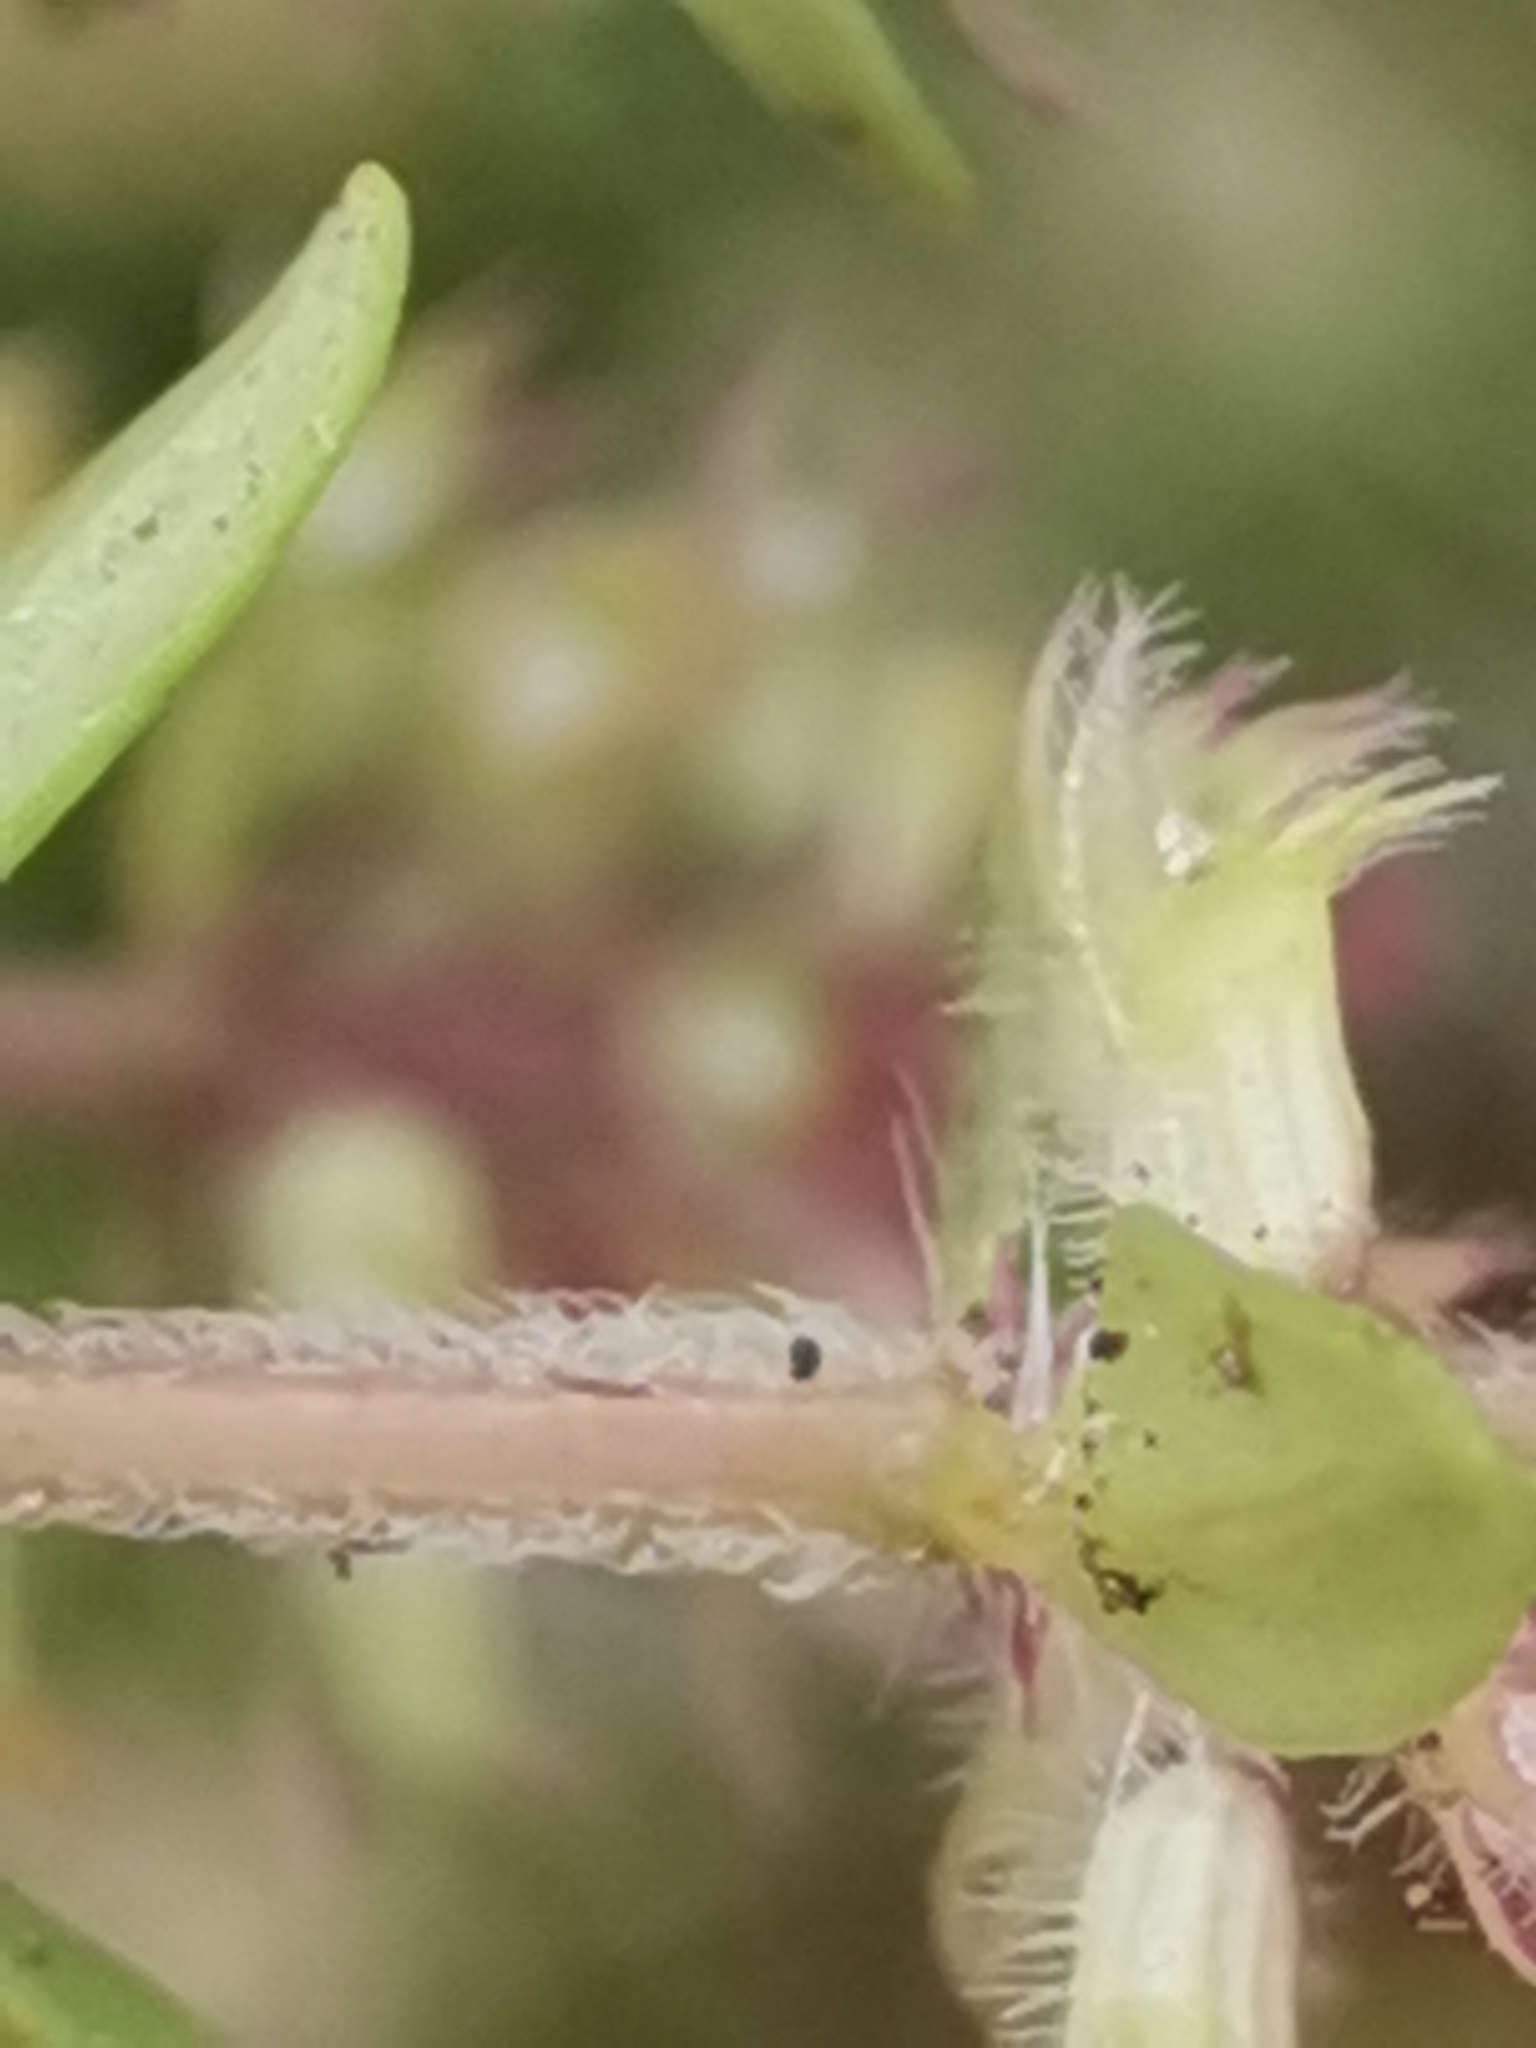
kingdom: Plantae
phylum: Tracheophyta
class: Magnoliopsida
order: Lamiales
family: Lamiaceae
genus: Thymus
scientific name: Thymus pulegioides
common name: Large thyme
